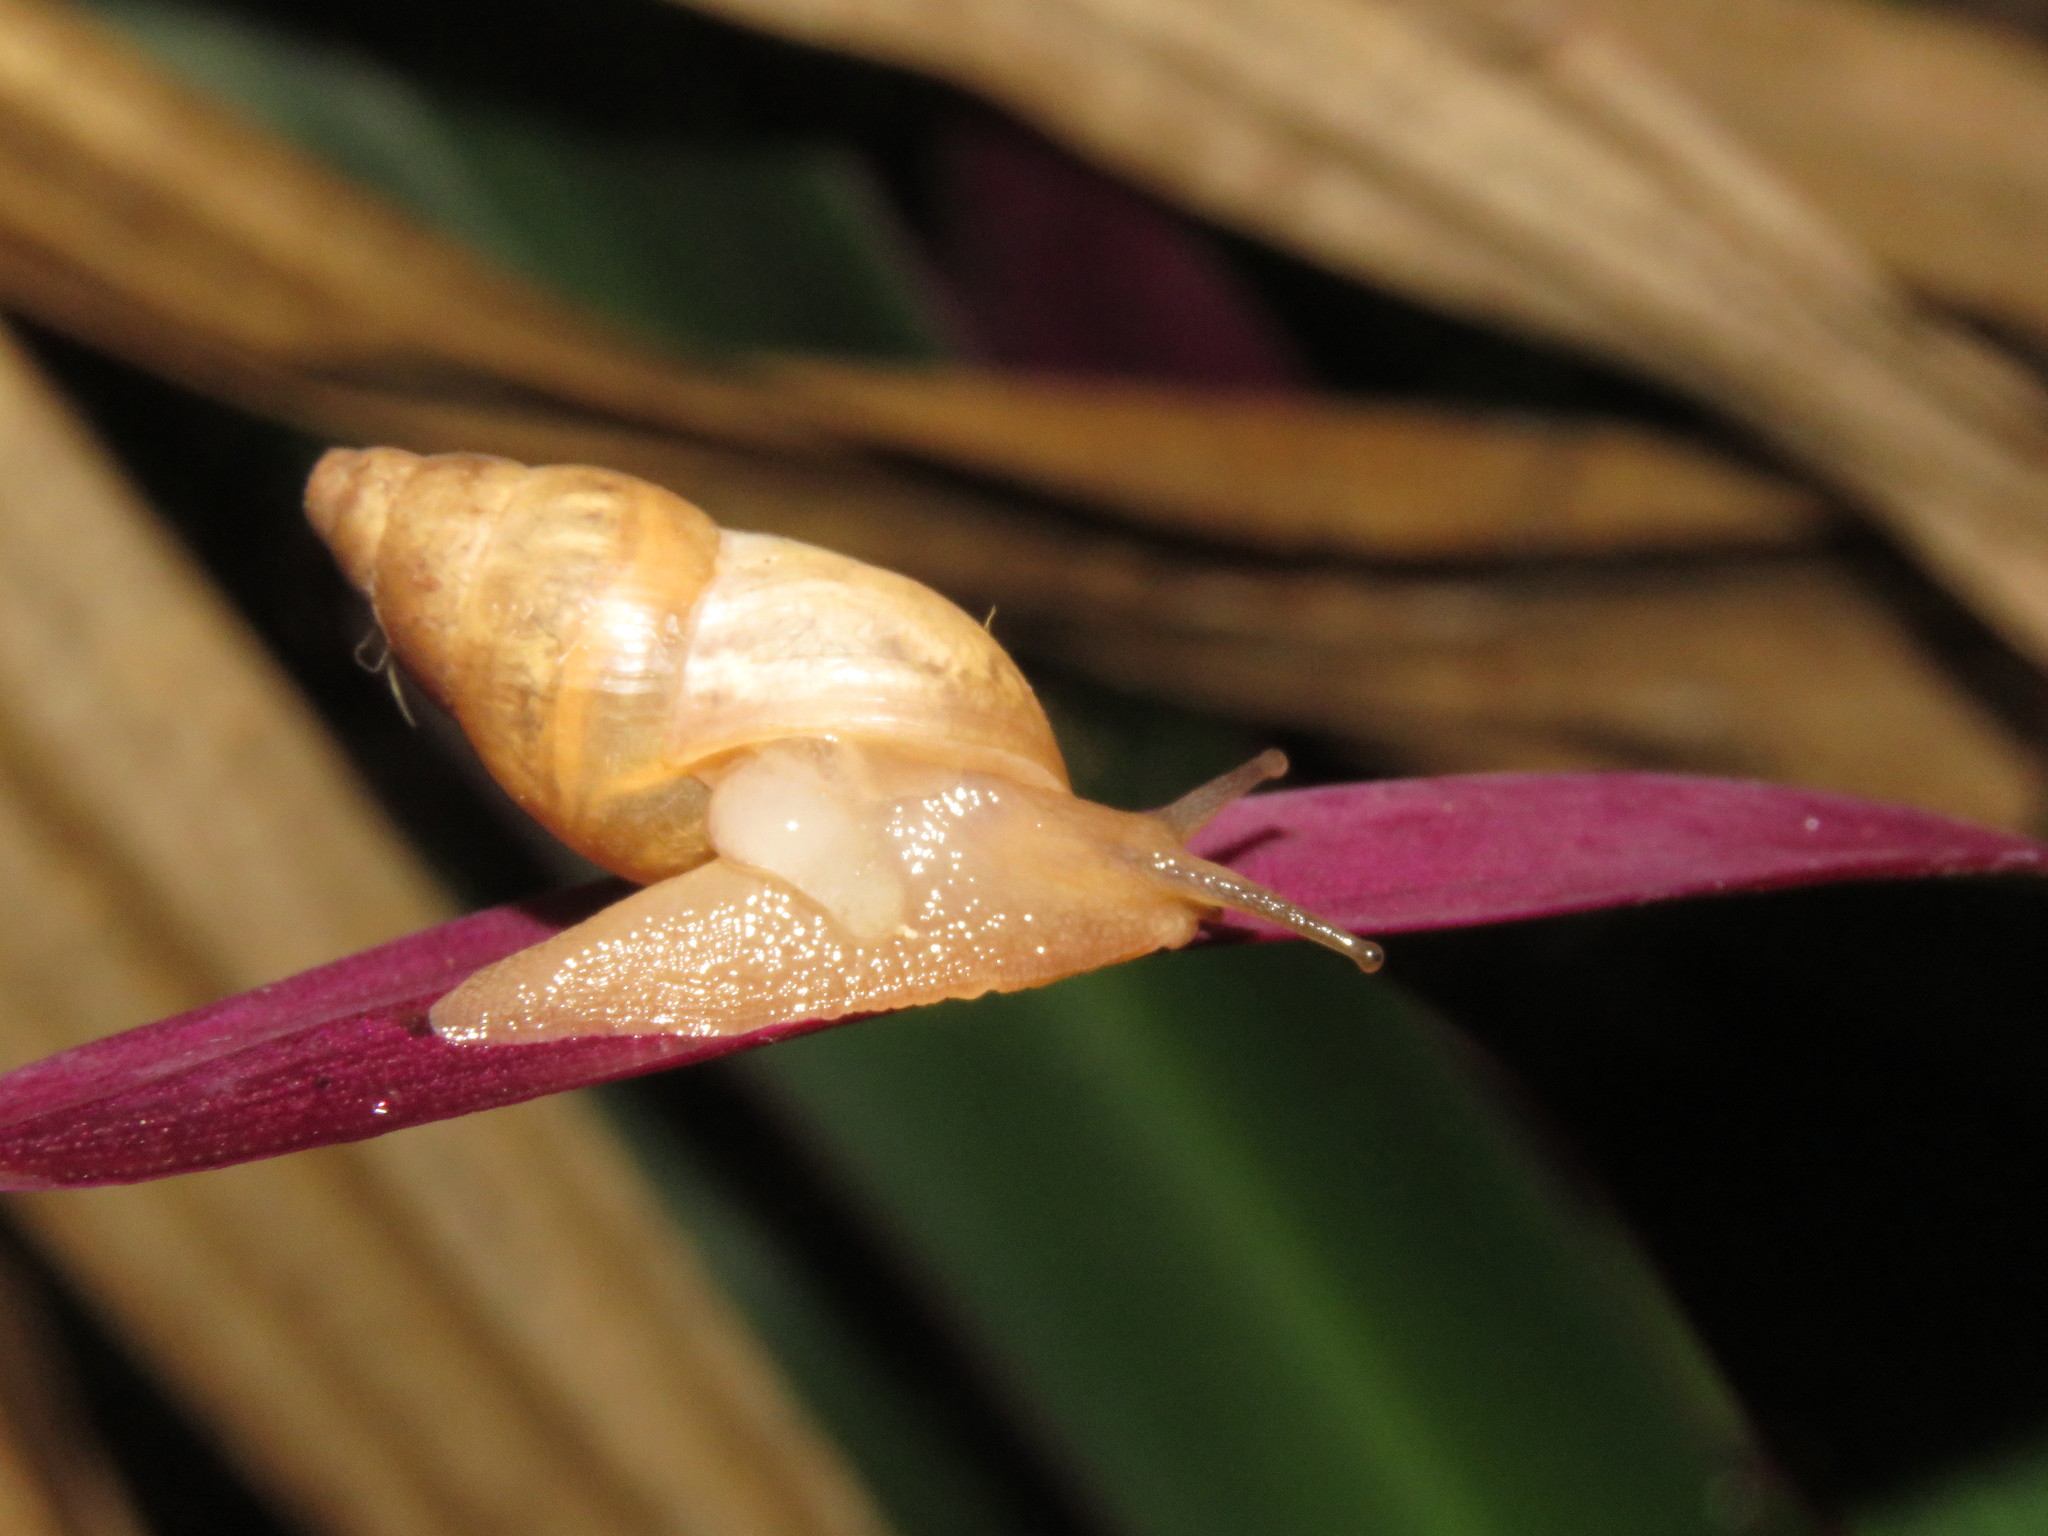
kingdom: Animalia
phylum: Mollusca
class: Gastropoda
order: Stylommatophora
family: Bulimulidae
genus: Bulimulus
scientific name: Bulimulus tenuissimus
